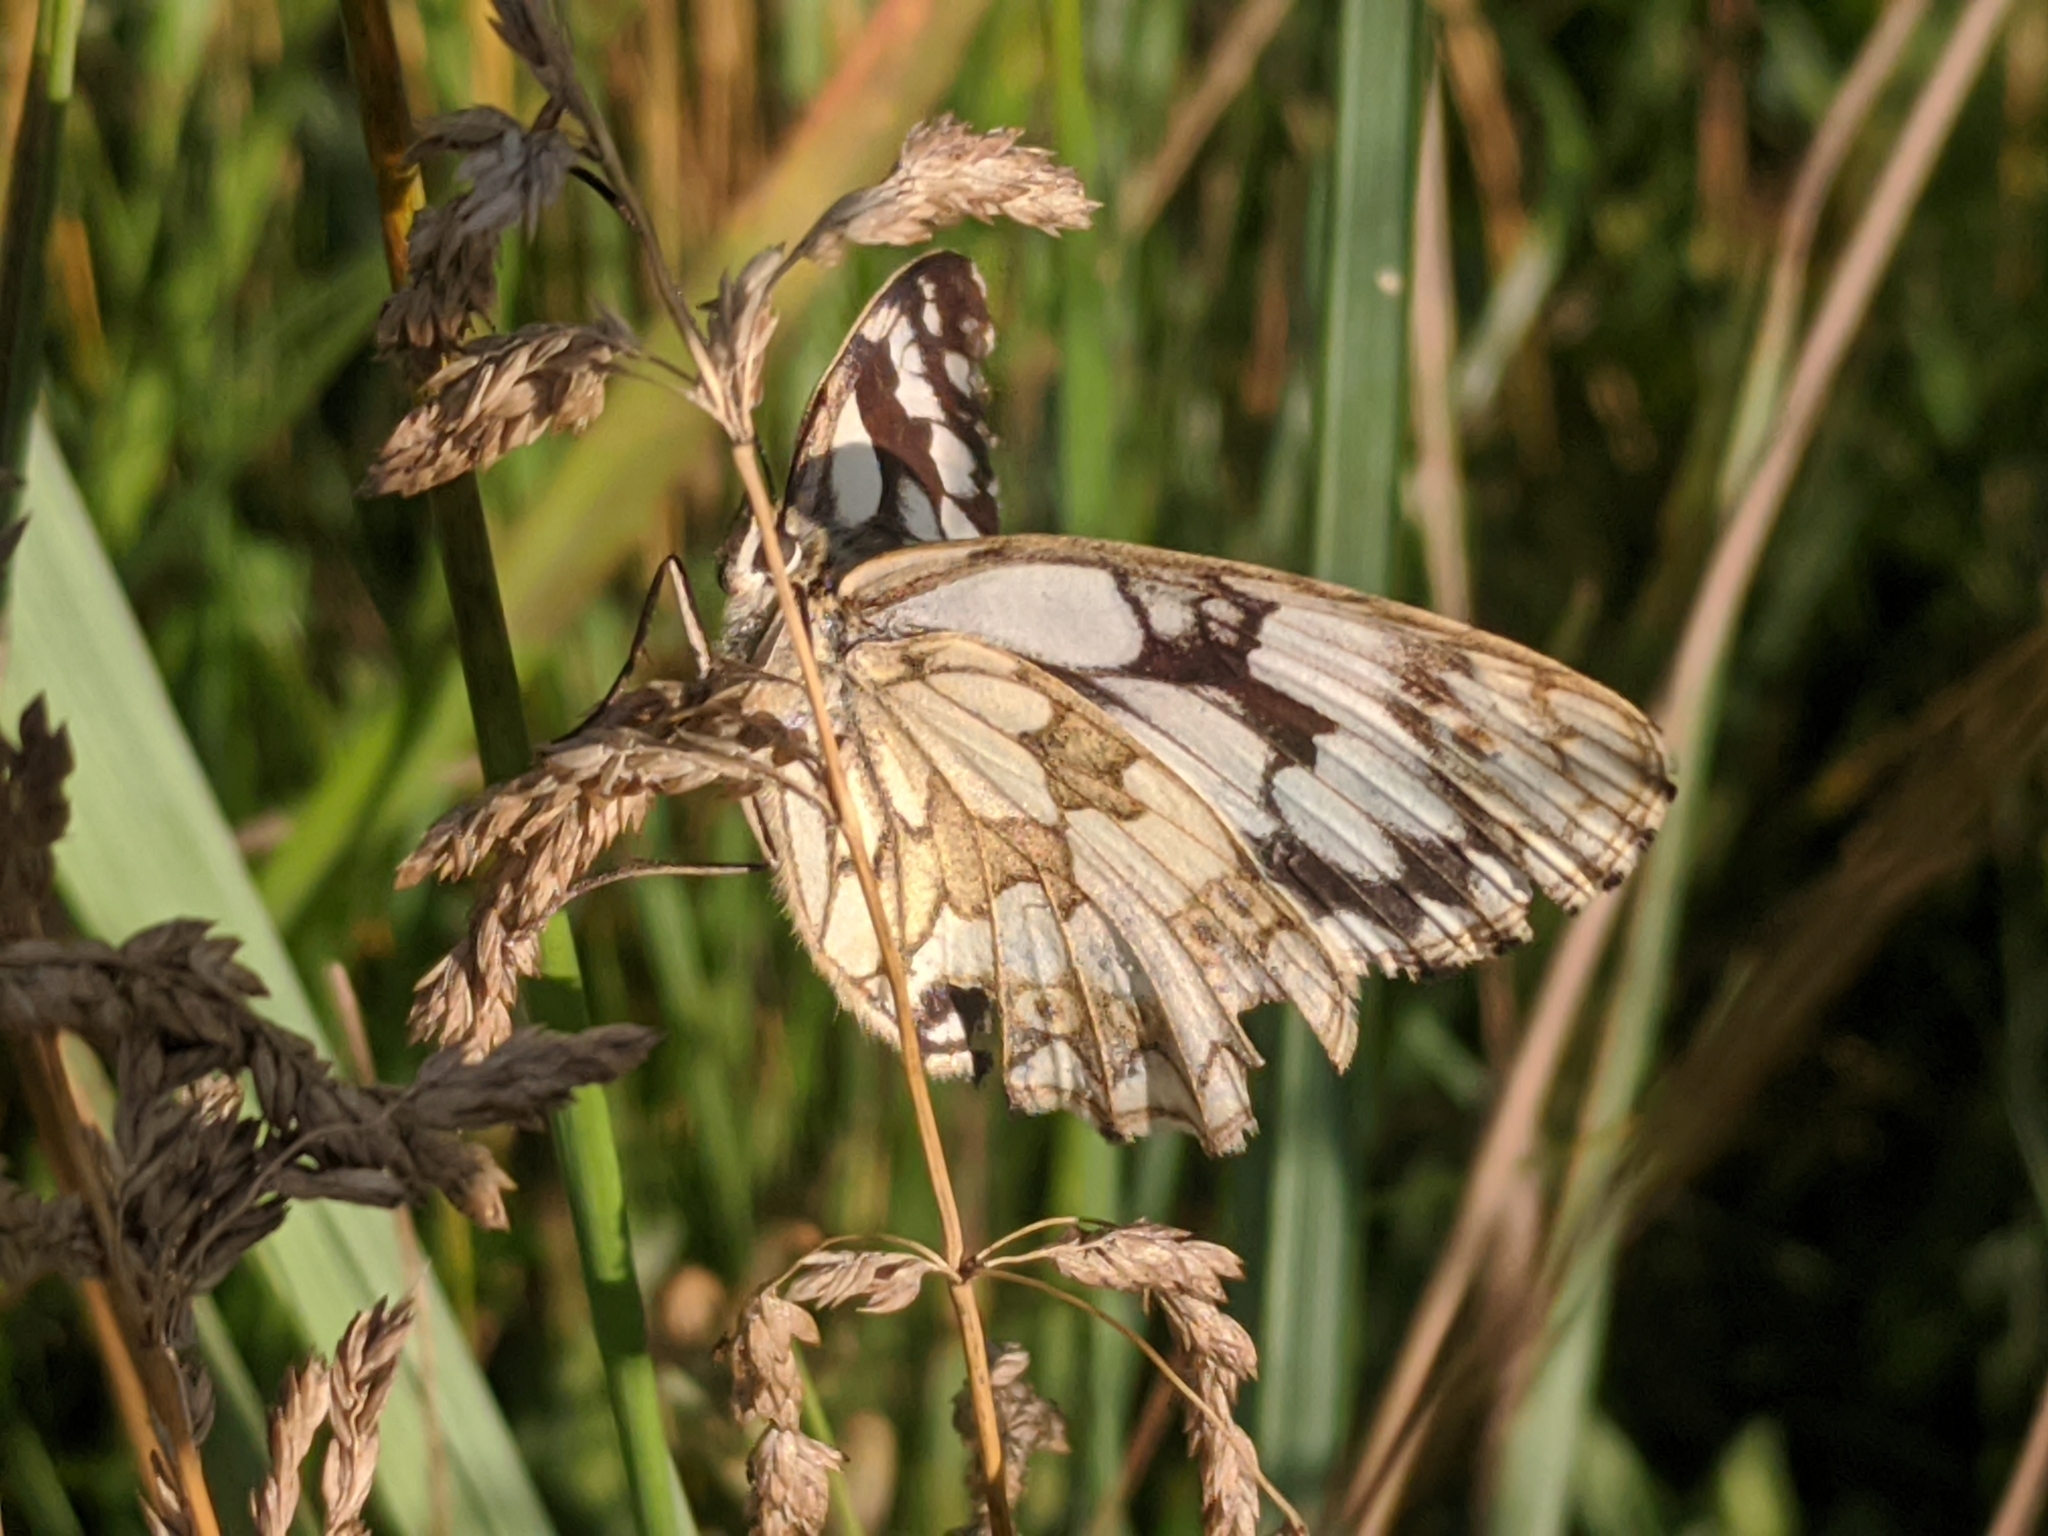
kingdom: Animalia
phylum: Arthropoda
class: Insecta
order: Lepidoptera
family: Nymphalidae
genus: Melanargia
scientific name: Melanargia galathea
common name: Marbled white
